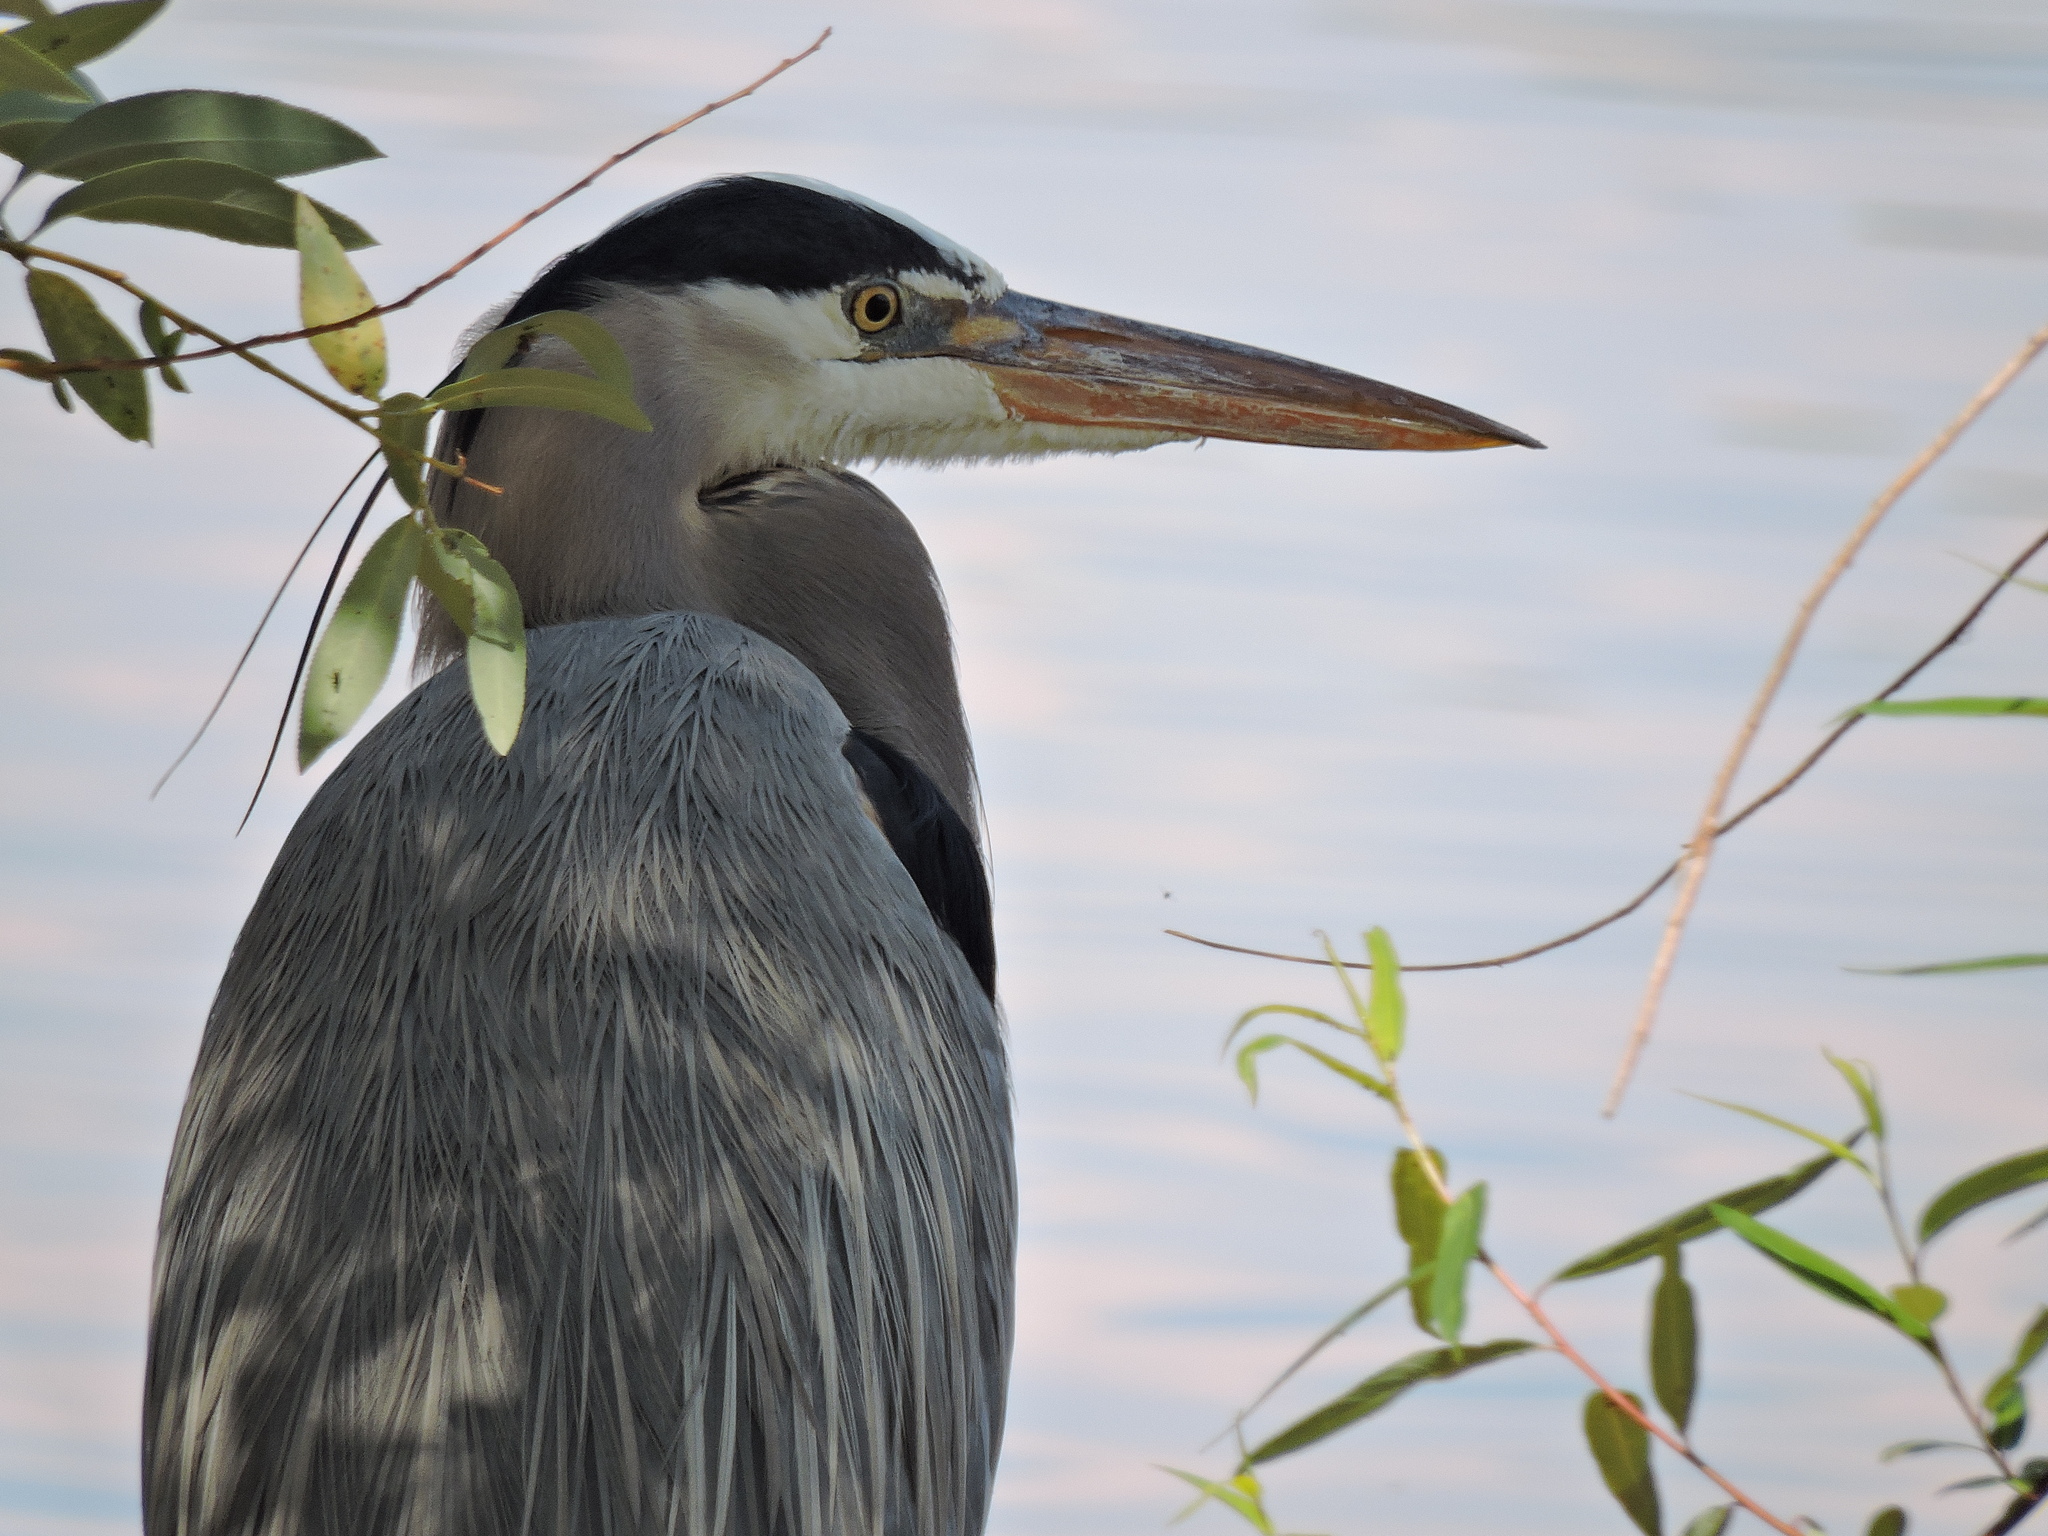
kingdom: Animalia
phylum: Chordata
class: Aves
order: Pelecaniformes
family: Ardeidae
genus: Ardea
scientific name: Ardea herodias
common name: Great blue heron
